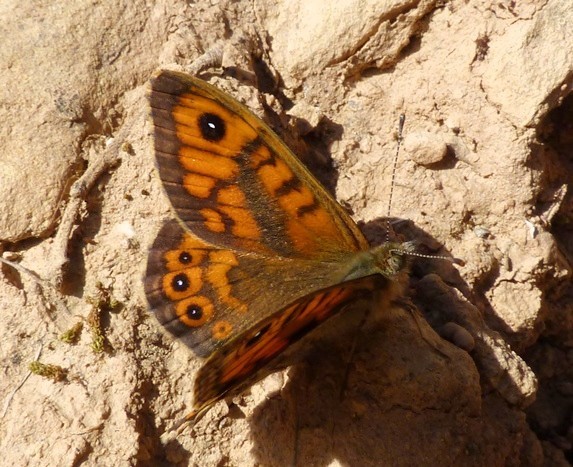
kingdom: Animalia
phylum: Arthropoda
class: Insecta
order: Lepidoptera
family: Nymphalidae
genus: Pararge
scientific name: Pararge Lasiommata megera
